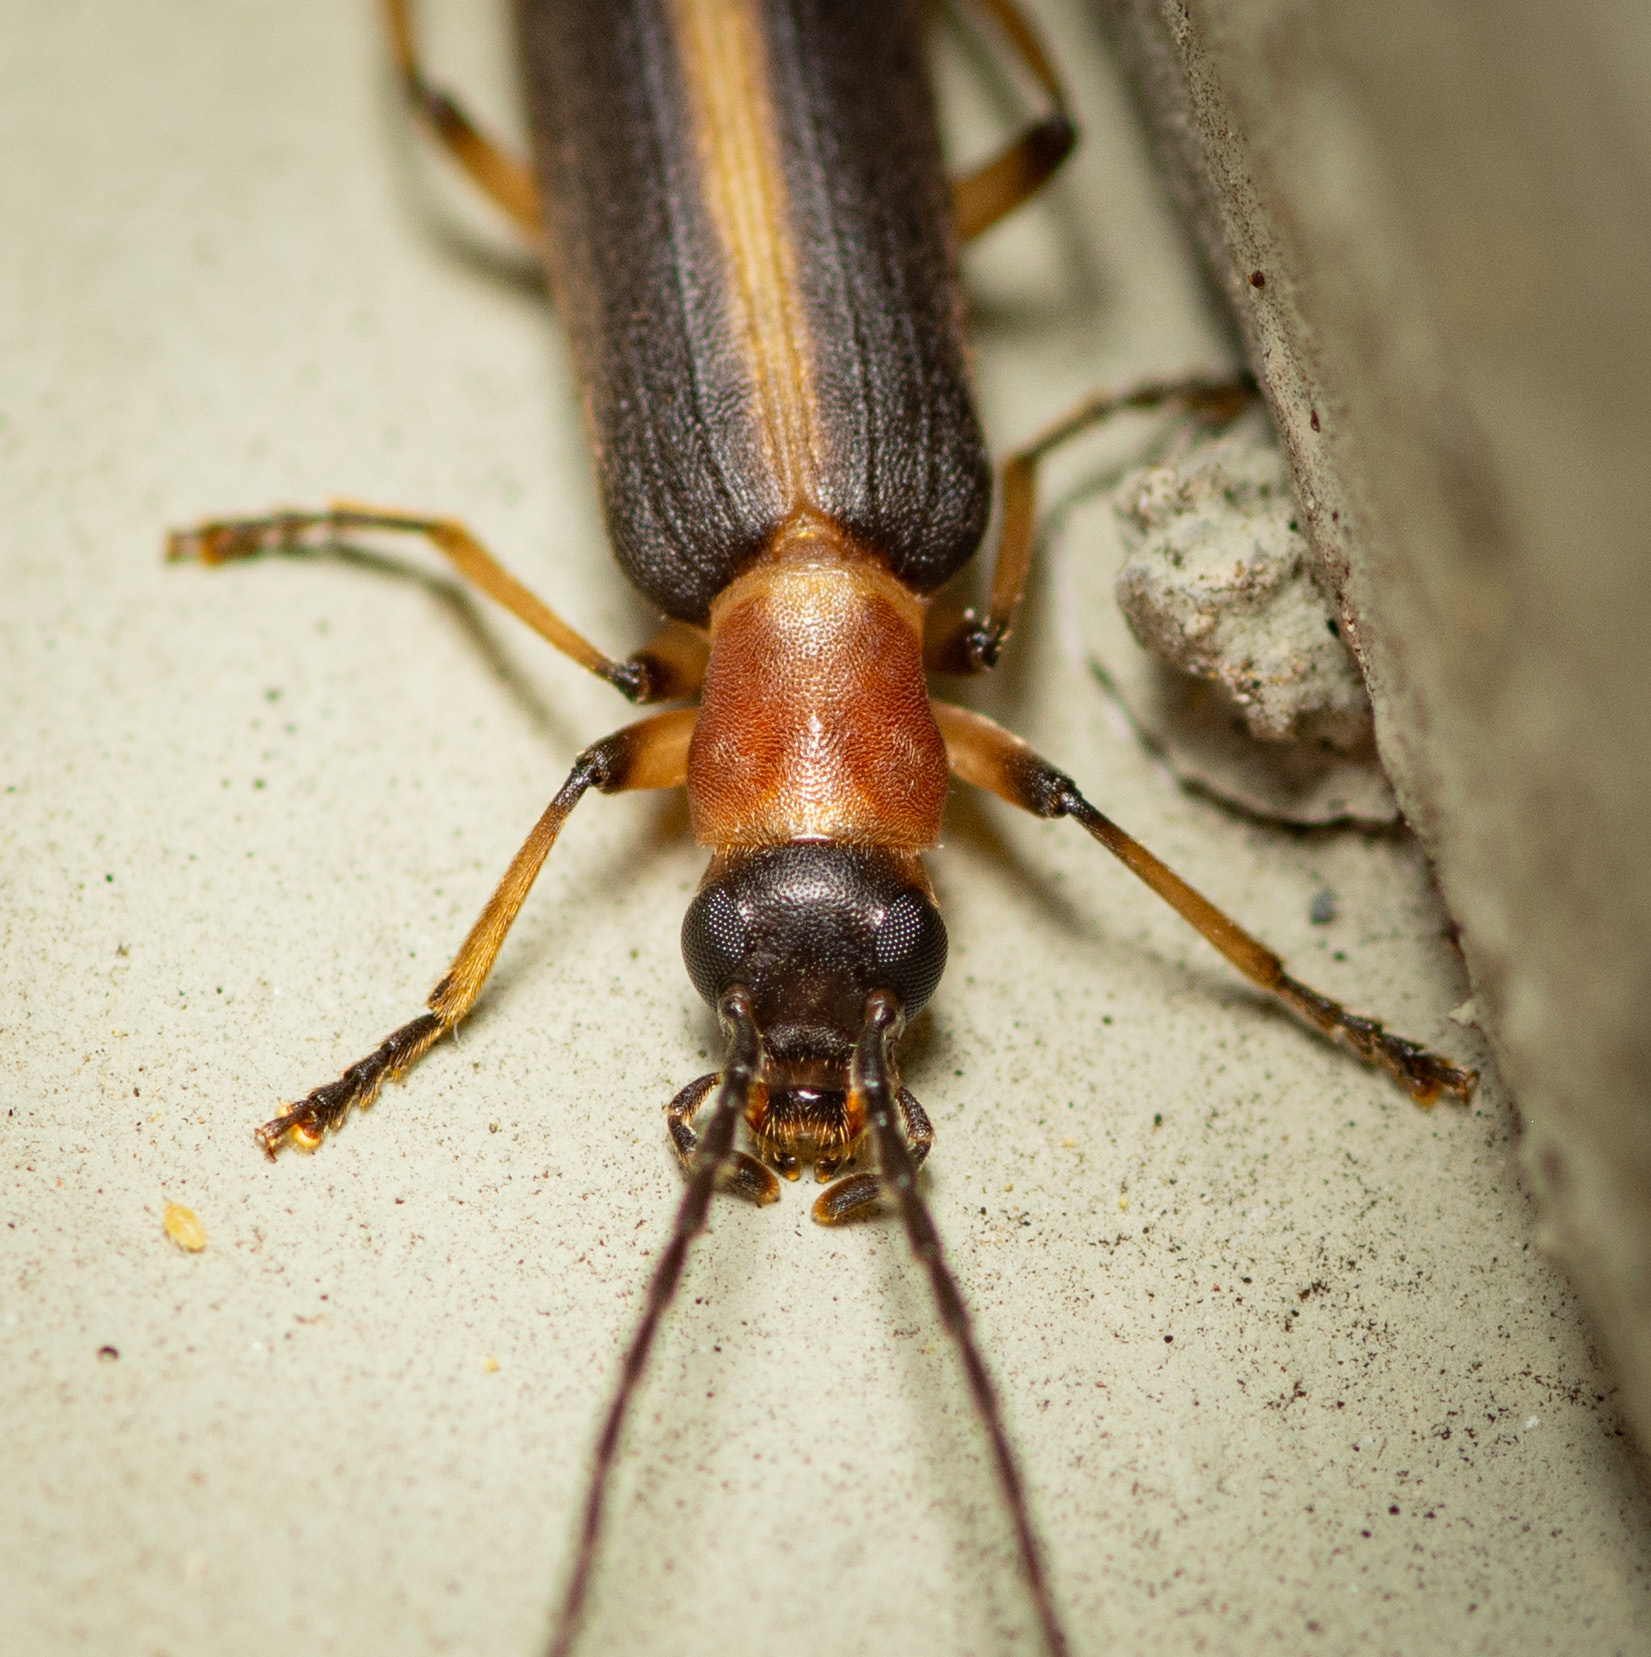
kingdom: Animalia
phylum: Arthropoda
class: Insecta
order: Coleoptera
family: Oedemeridae
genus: Oxycopis
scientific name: Oxycopis mimetica
